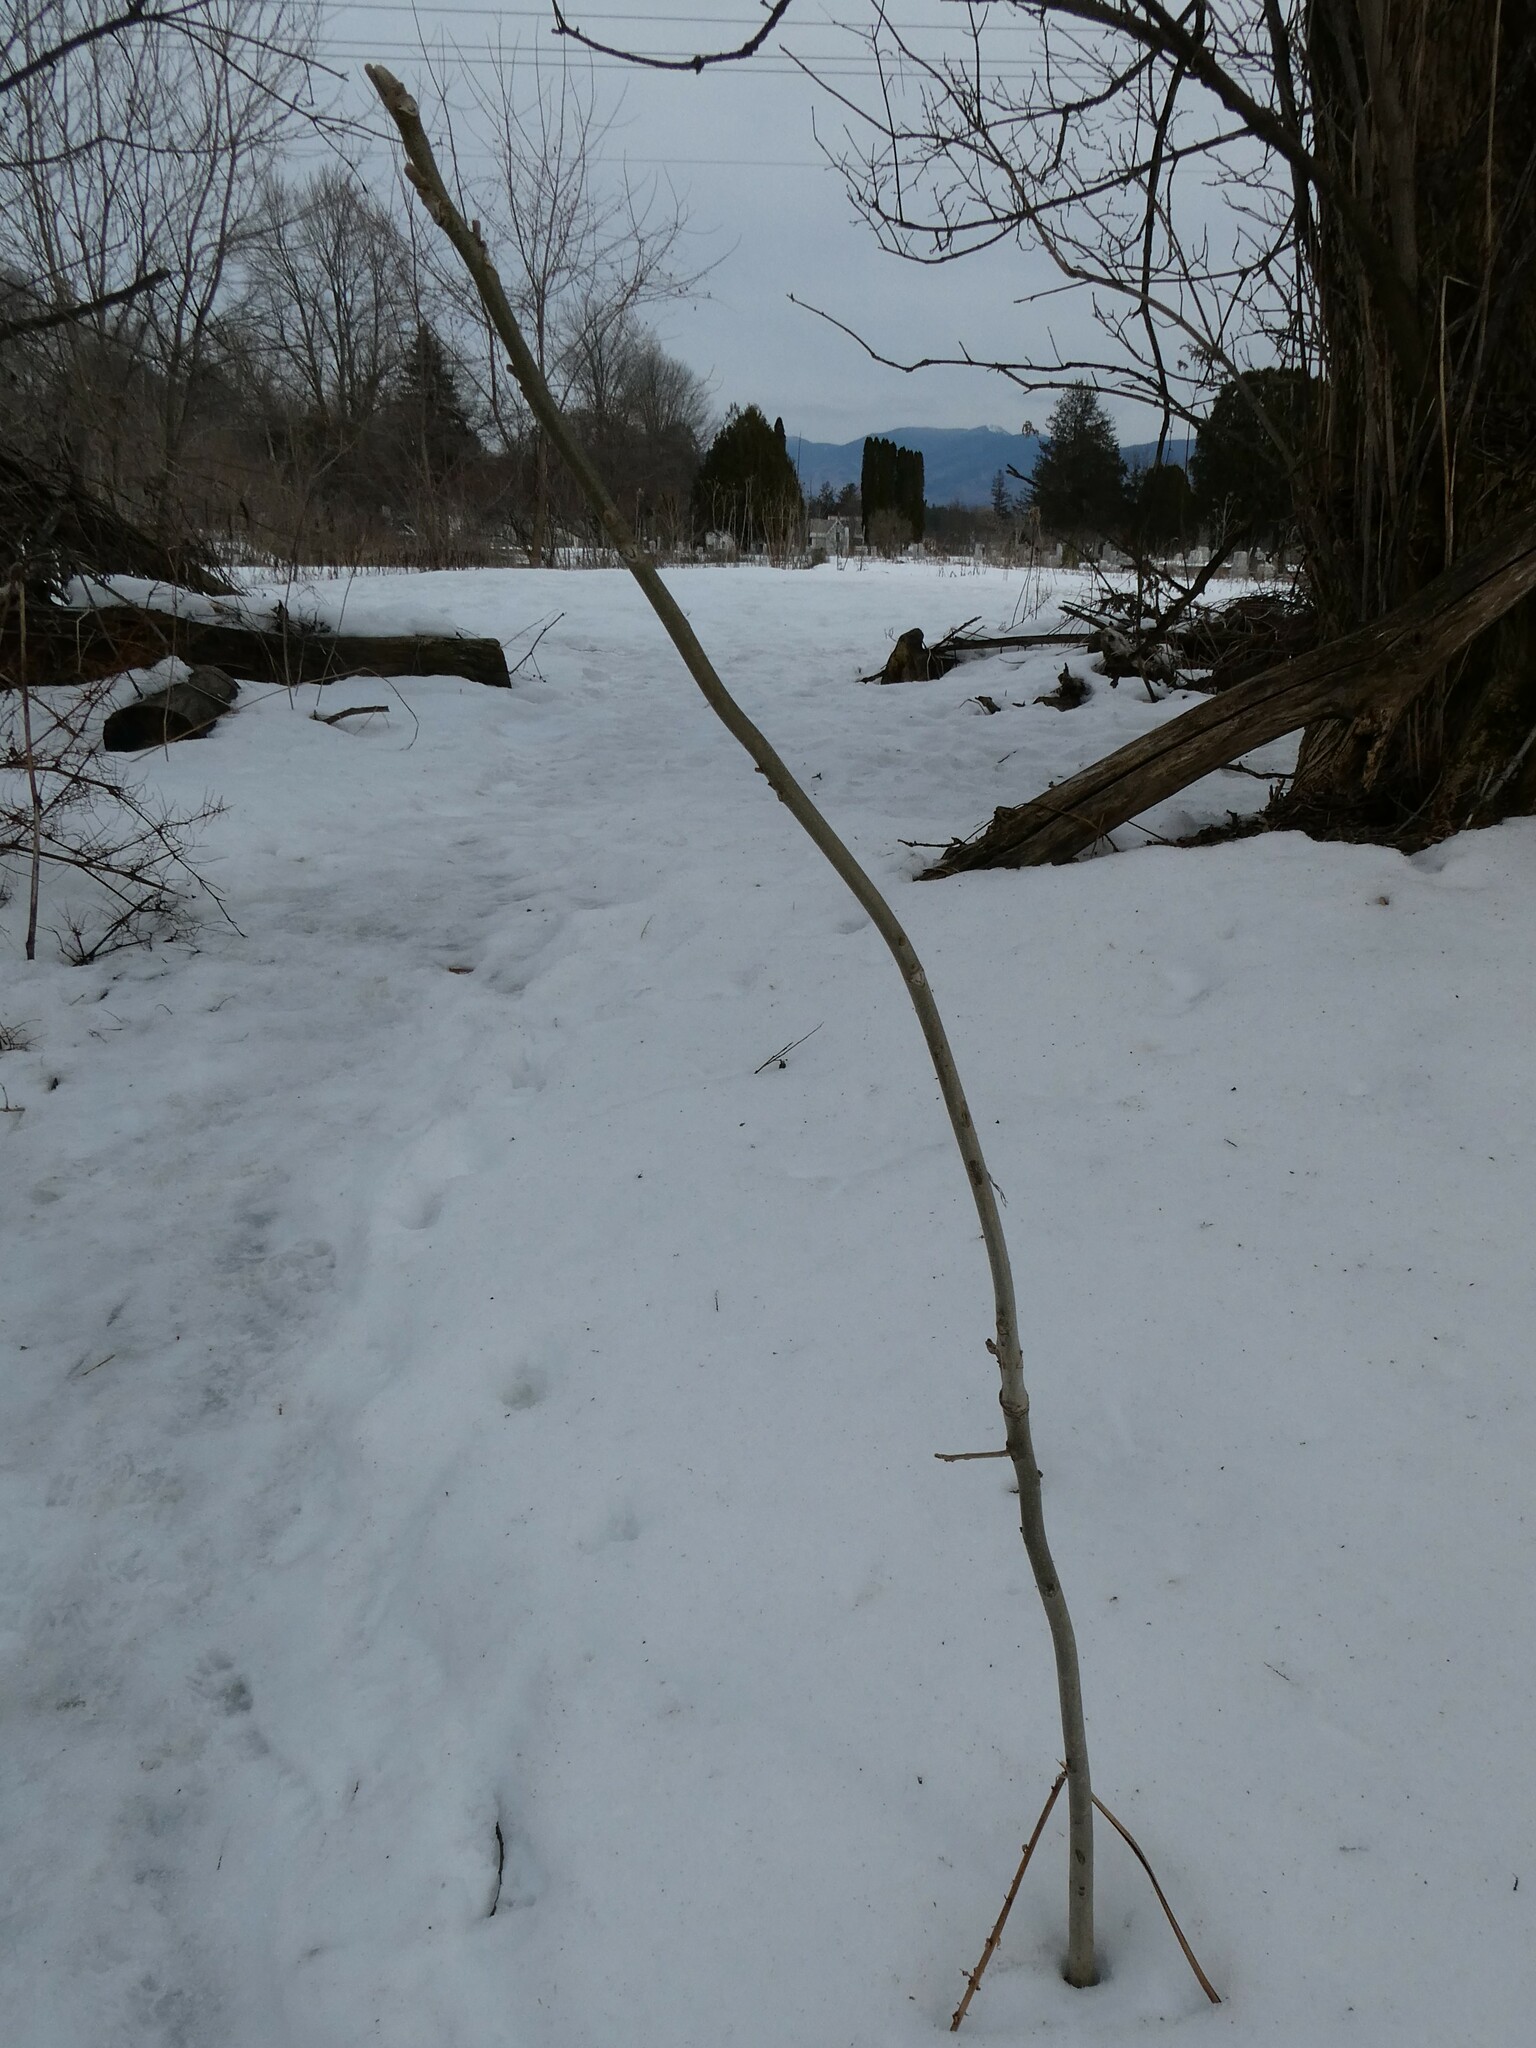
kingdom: Plantae
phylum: Tracheophyta
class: Magnoliopsida
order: Fagales
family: Juglandaceae
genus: Juglans
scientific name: Juglans cinerea
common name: Butternut
